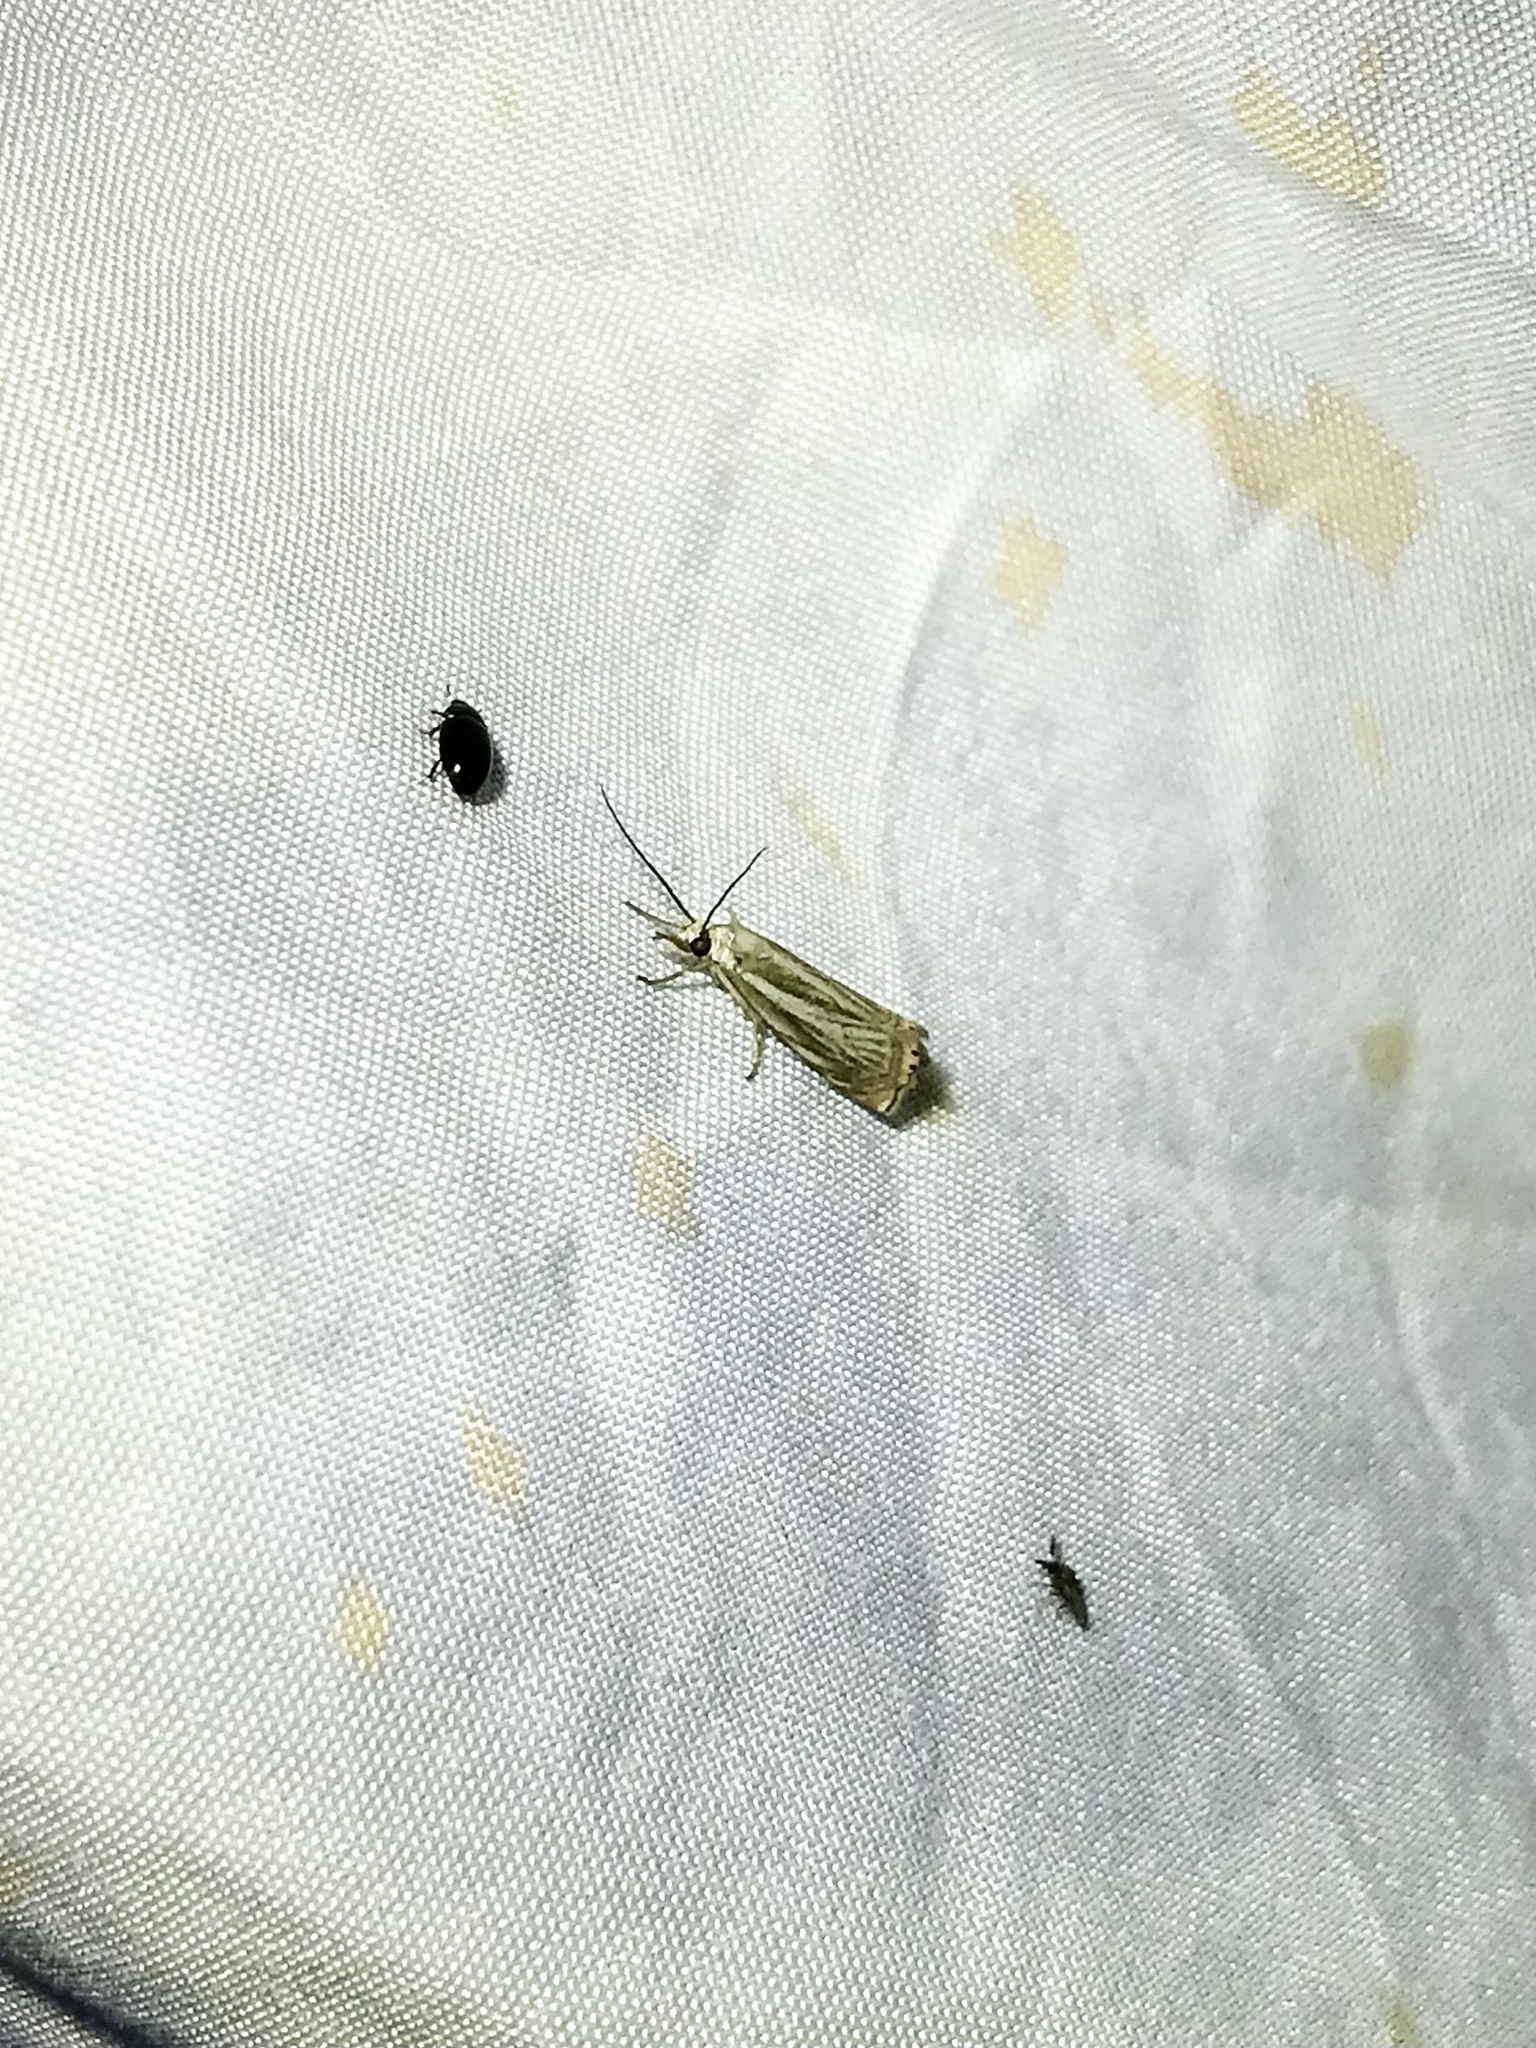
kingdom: Animalia
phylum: Arthropoda
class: Insecta
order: Lepidoptera
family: Crambidae
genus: Chrysoteuchia
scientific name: Chrysoteuchia topiarius
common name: Topiary grass-veneer
